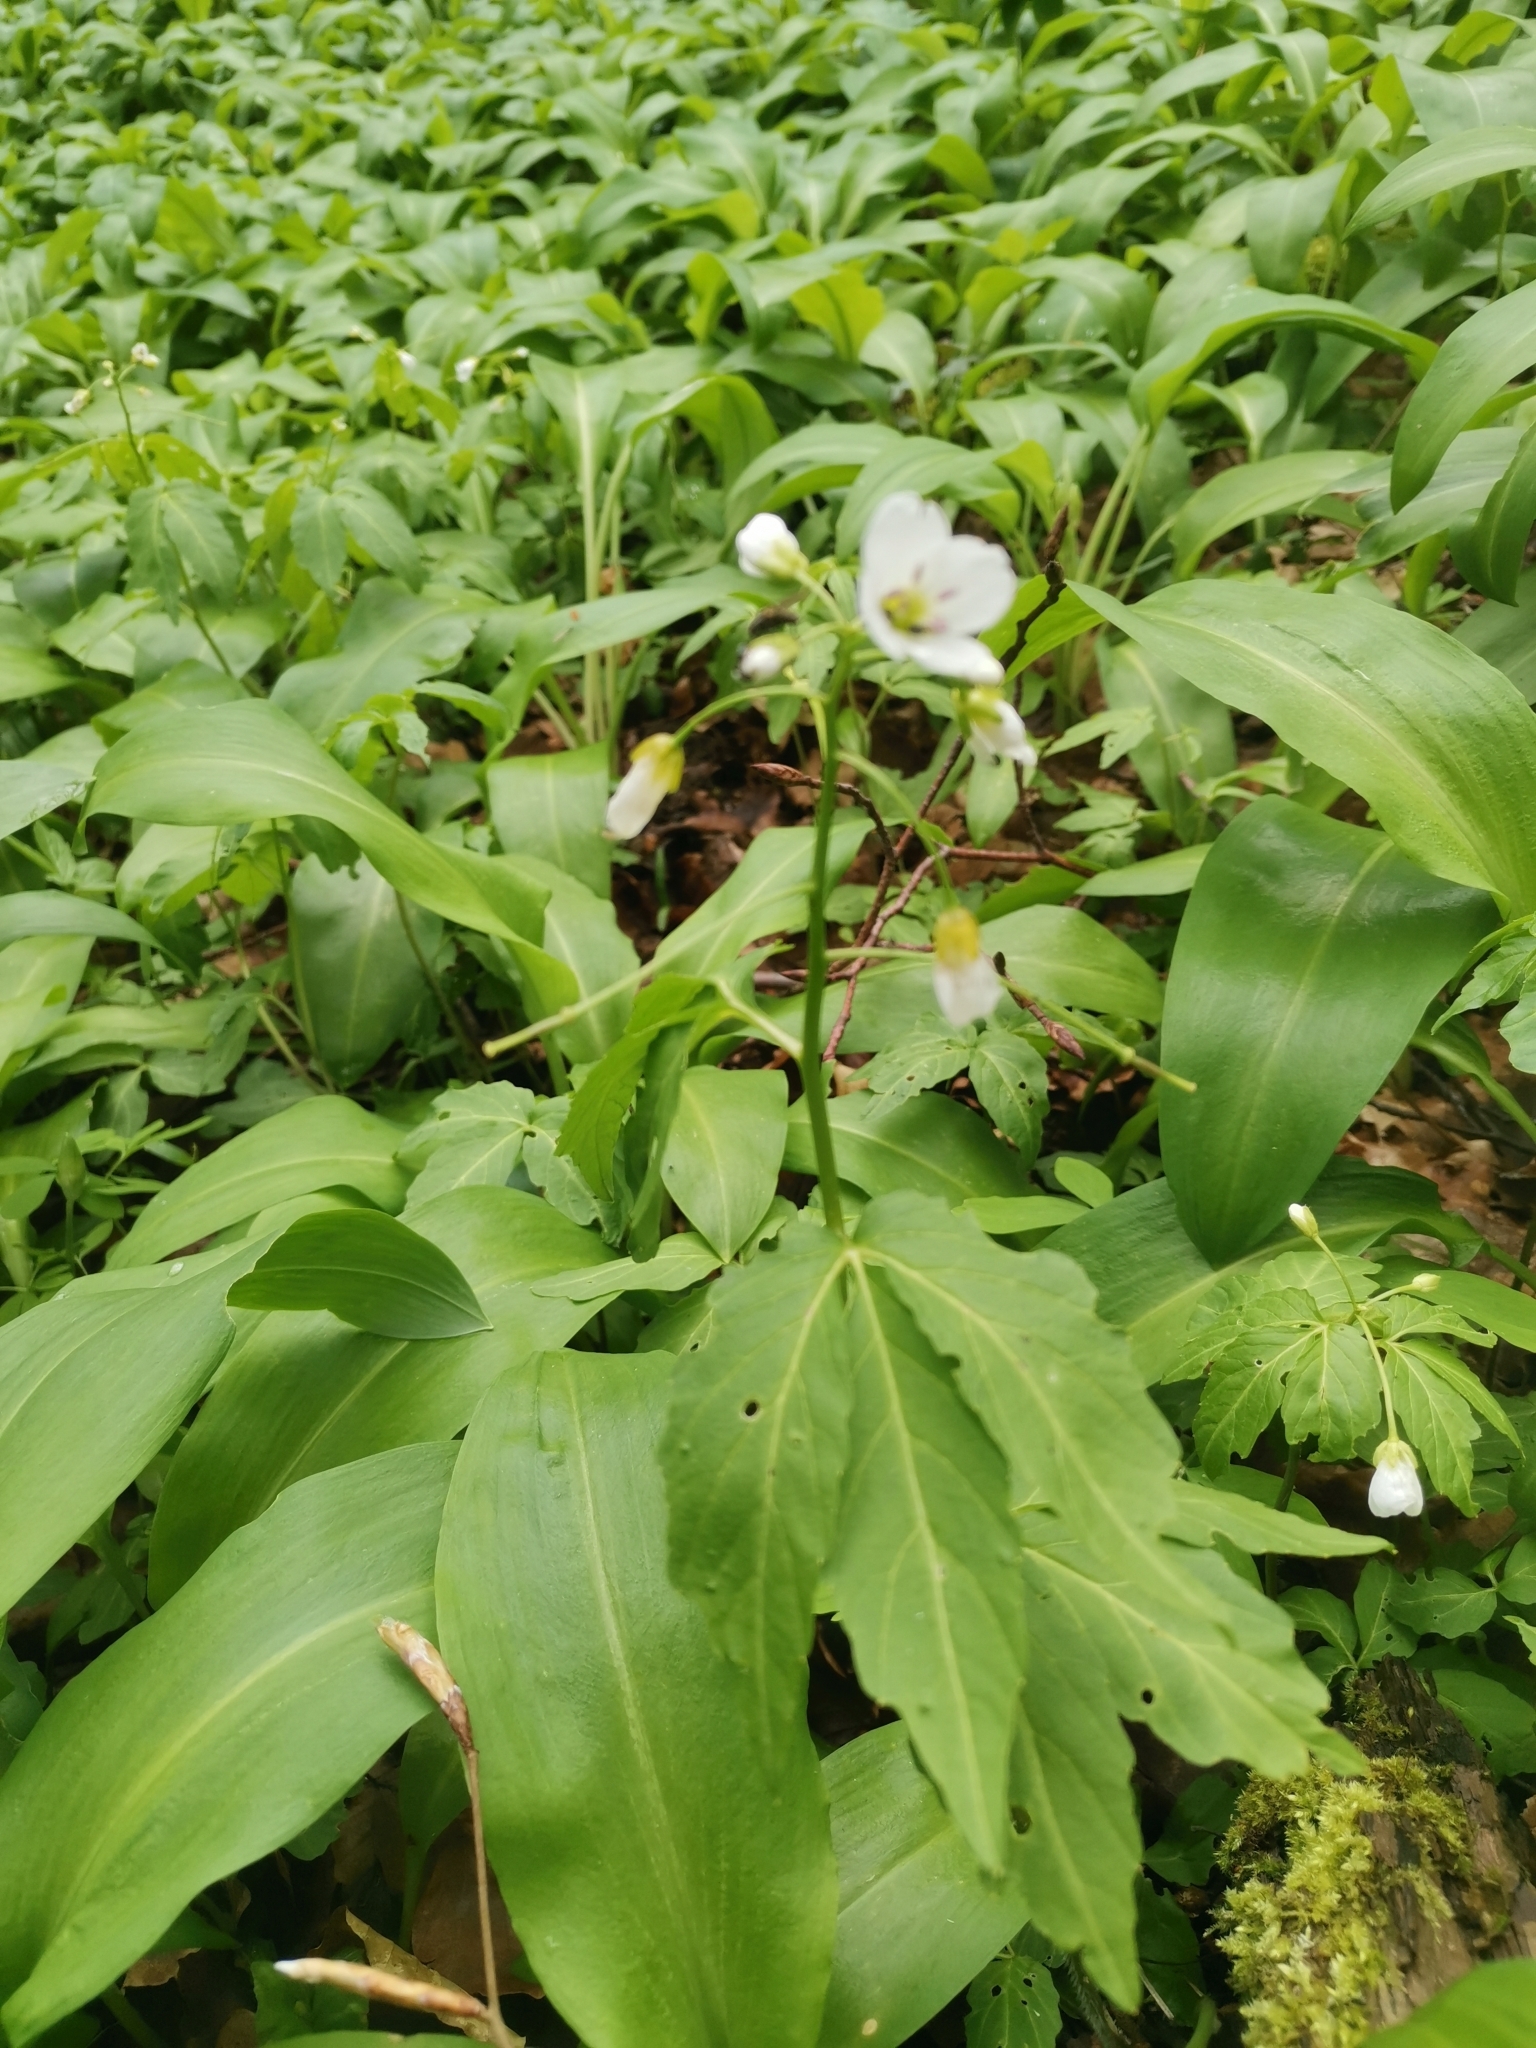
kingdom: Plantae
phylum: Tracheophyta
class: Magnoliopsida
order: Brassicales
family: Brassicaceae
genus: Cardamine
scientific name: Cardamine waldsteinii
